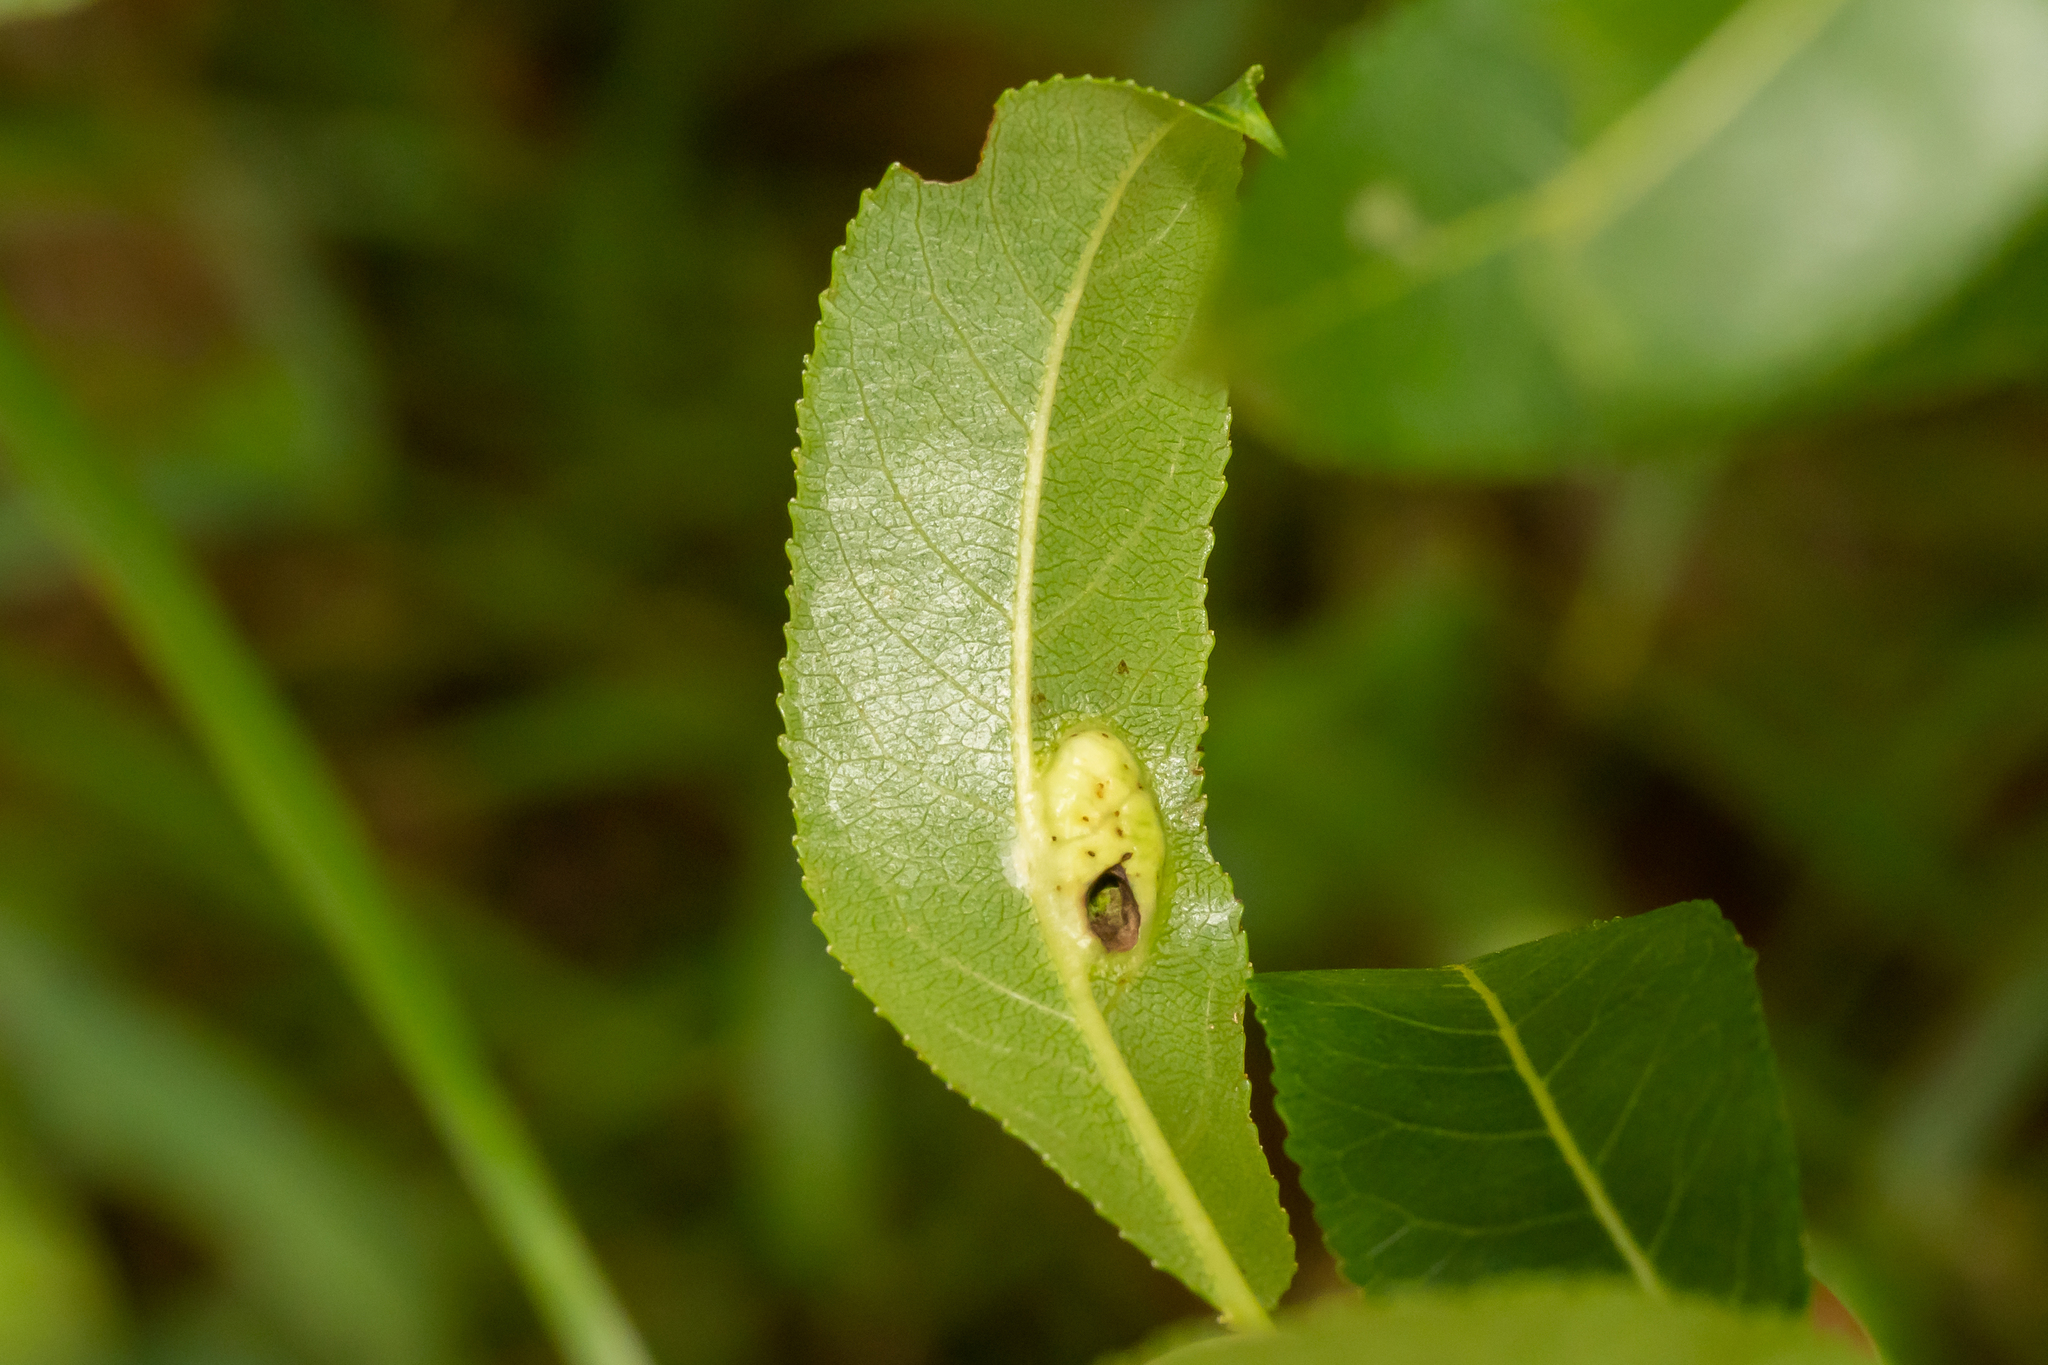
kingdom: Animalia
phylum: Arthropoda
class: Insecta
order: Hymenoptera
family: Tenthredinidae
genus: Pontania
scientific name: Pontania proxima
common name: Common sawfly
